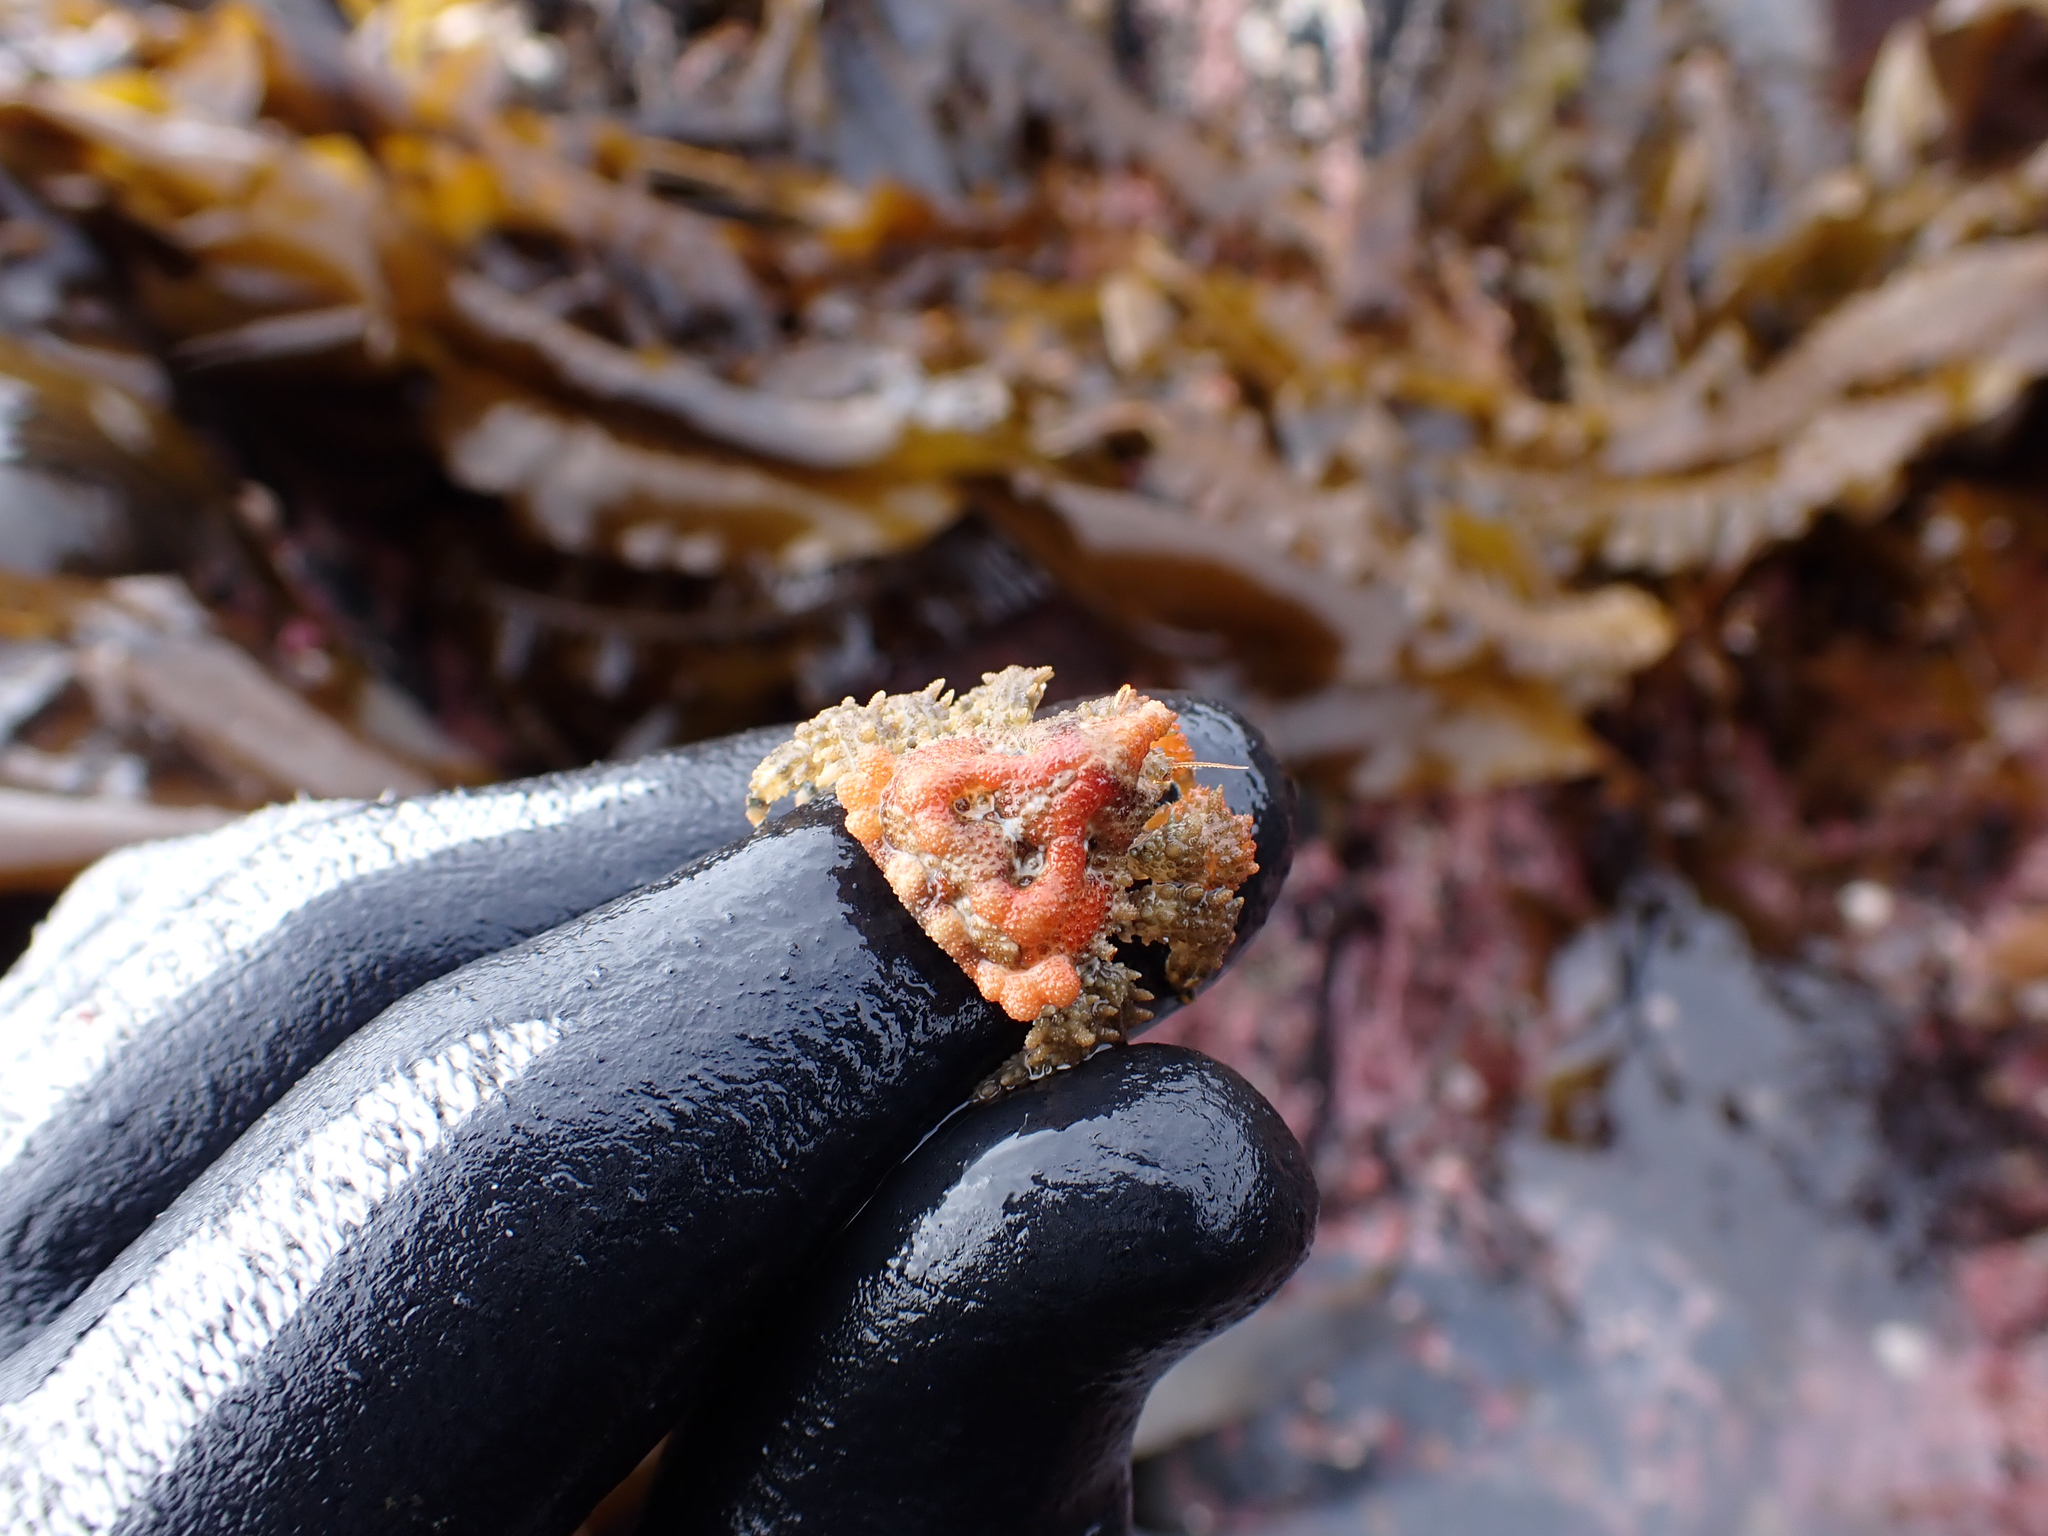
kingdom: Animalia
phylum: Arthropoda
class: Malacostraca
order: Decapoda
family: Lithodidae
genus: Phyllolithodes
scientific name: Phyllolithodes papillosus
